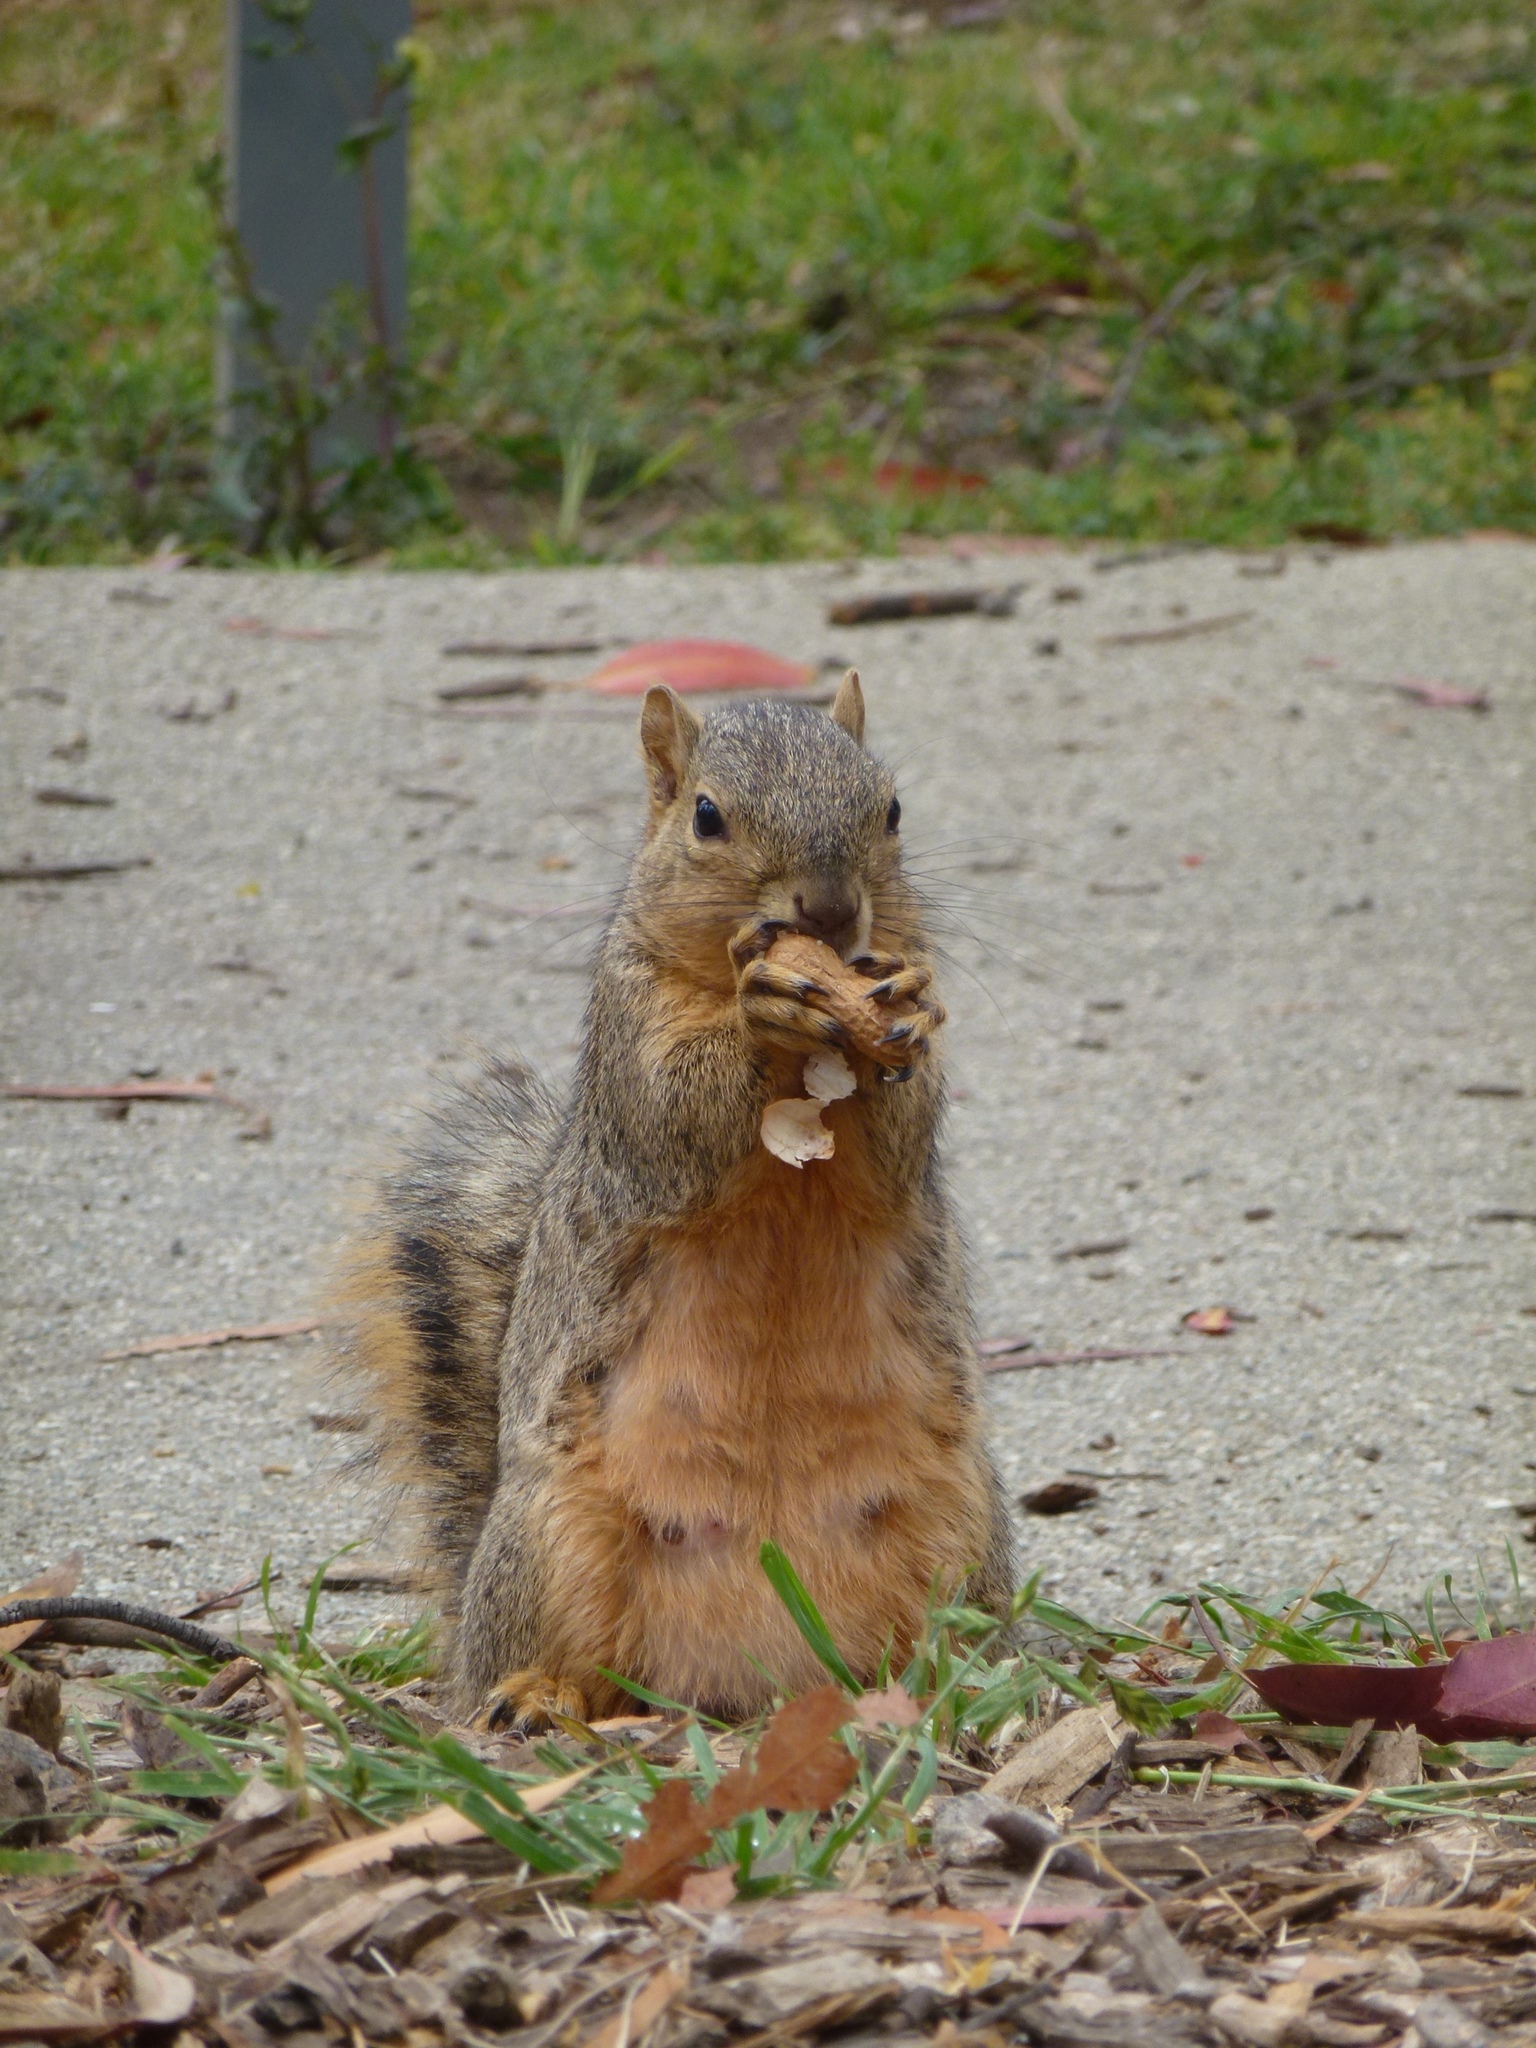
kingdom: Animalia
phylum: Chordata
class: Mammalia
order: Rodentia
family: Sciuridae
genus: Sciurus
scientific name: Sciurus niger
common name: Fox squirrel
